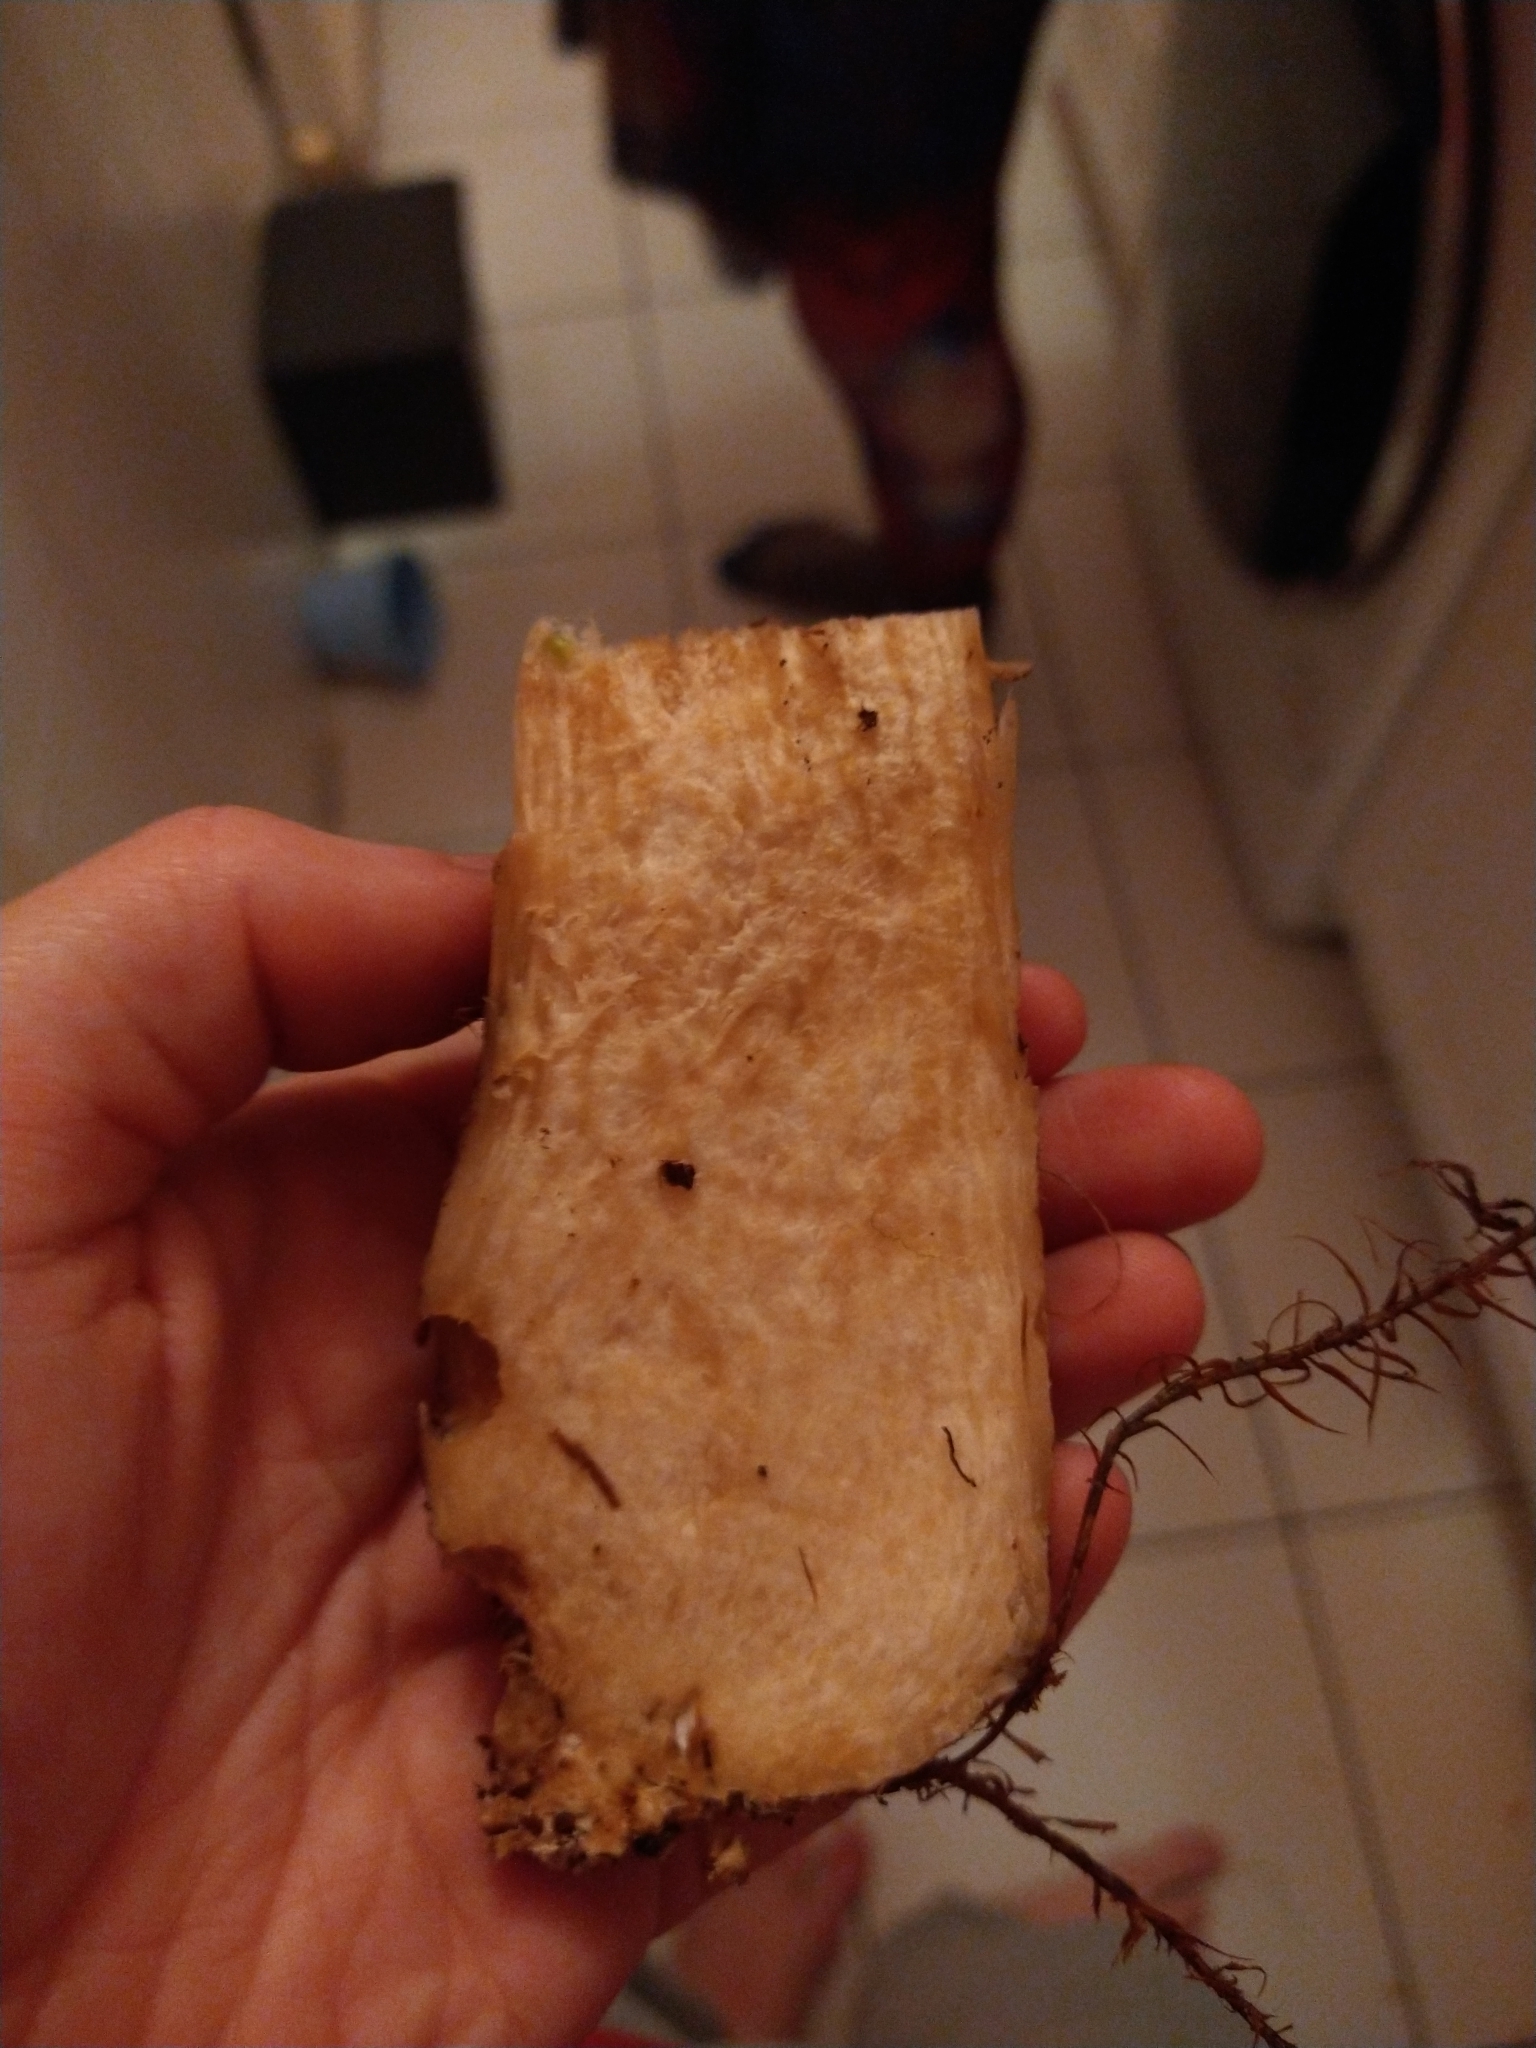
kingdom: Fungi
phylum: Basidiomycota
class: Agaricomycetes
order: Boletales
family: Boletaceae
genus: Leccinum
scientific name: Leccinum scabrum
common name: Blushing bolete
